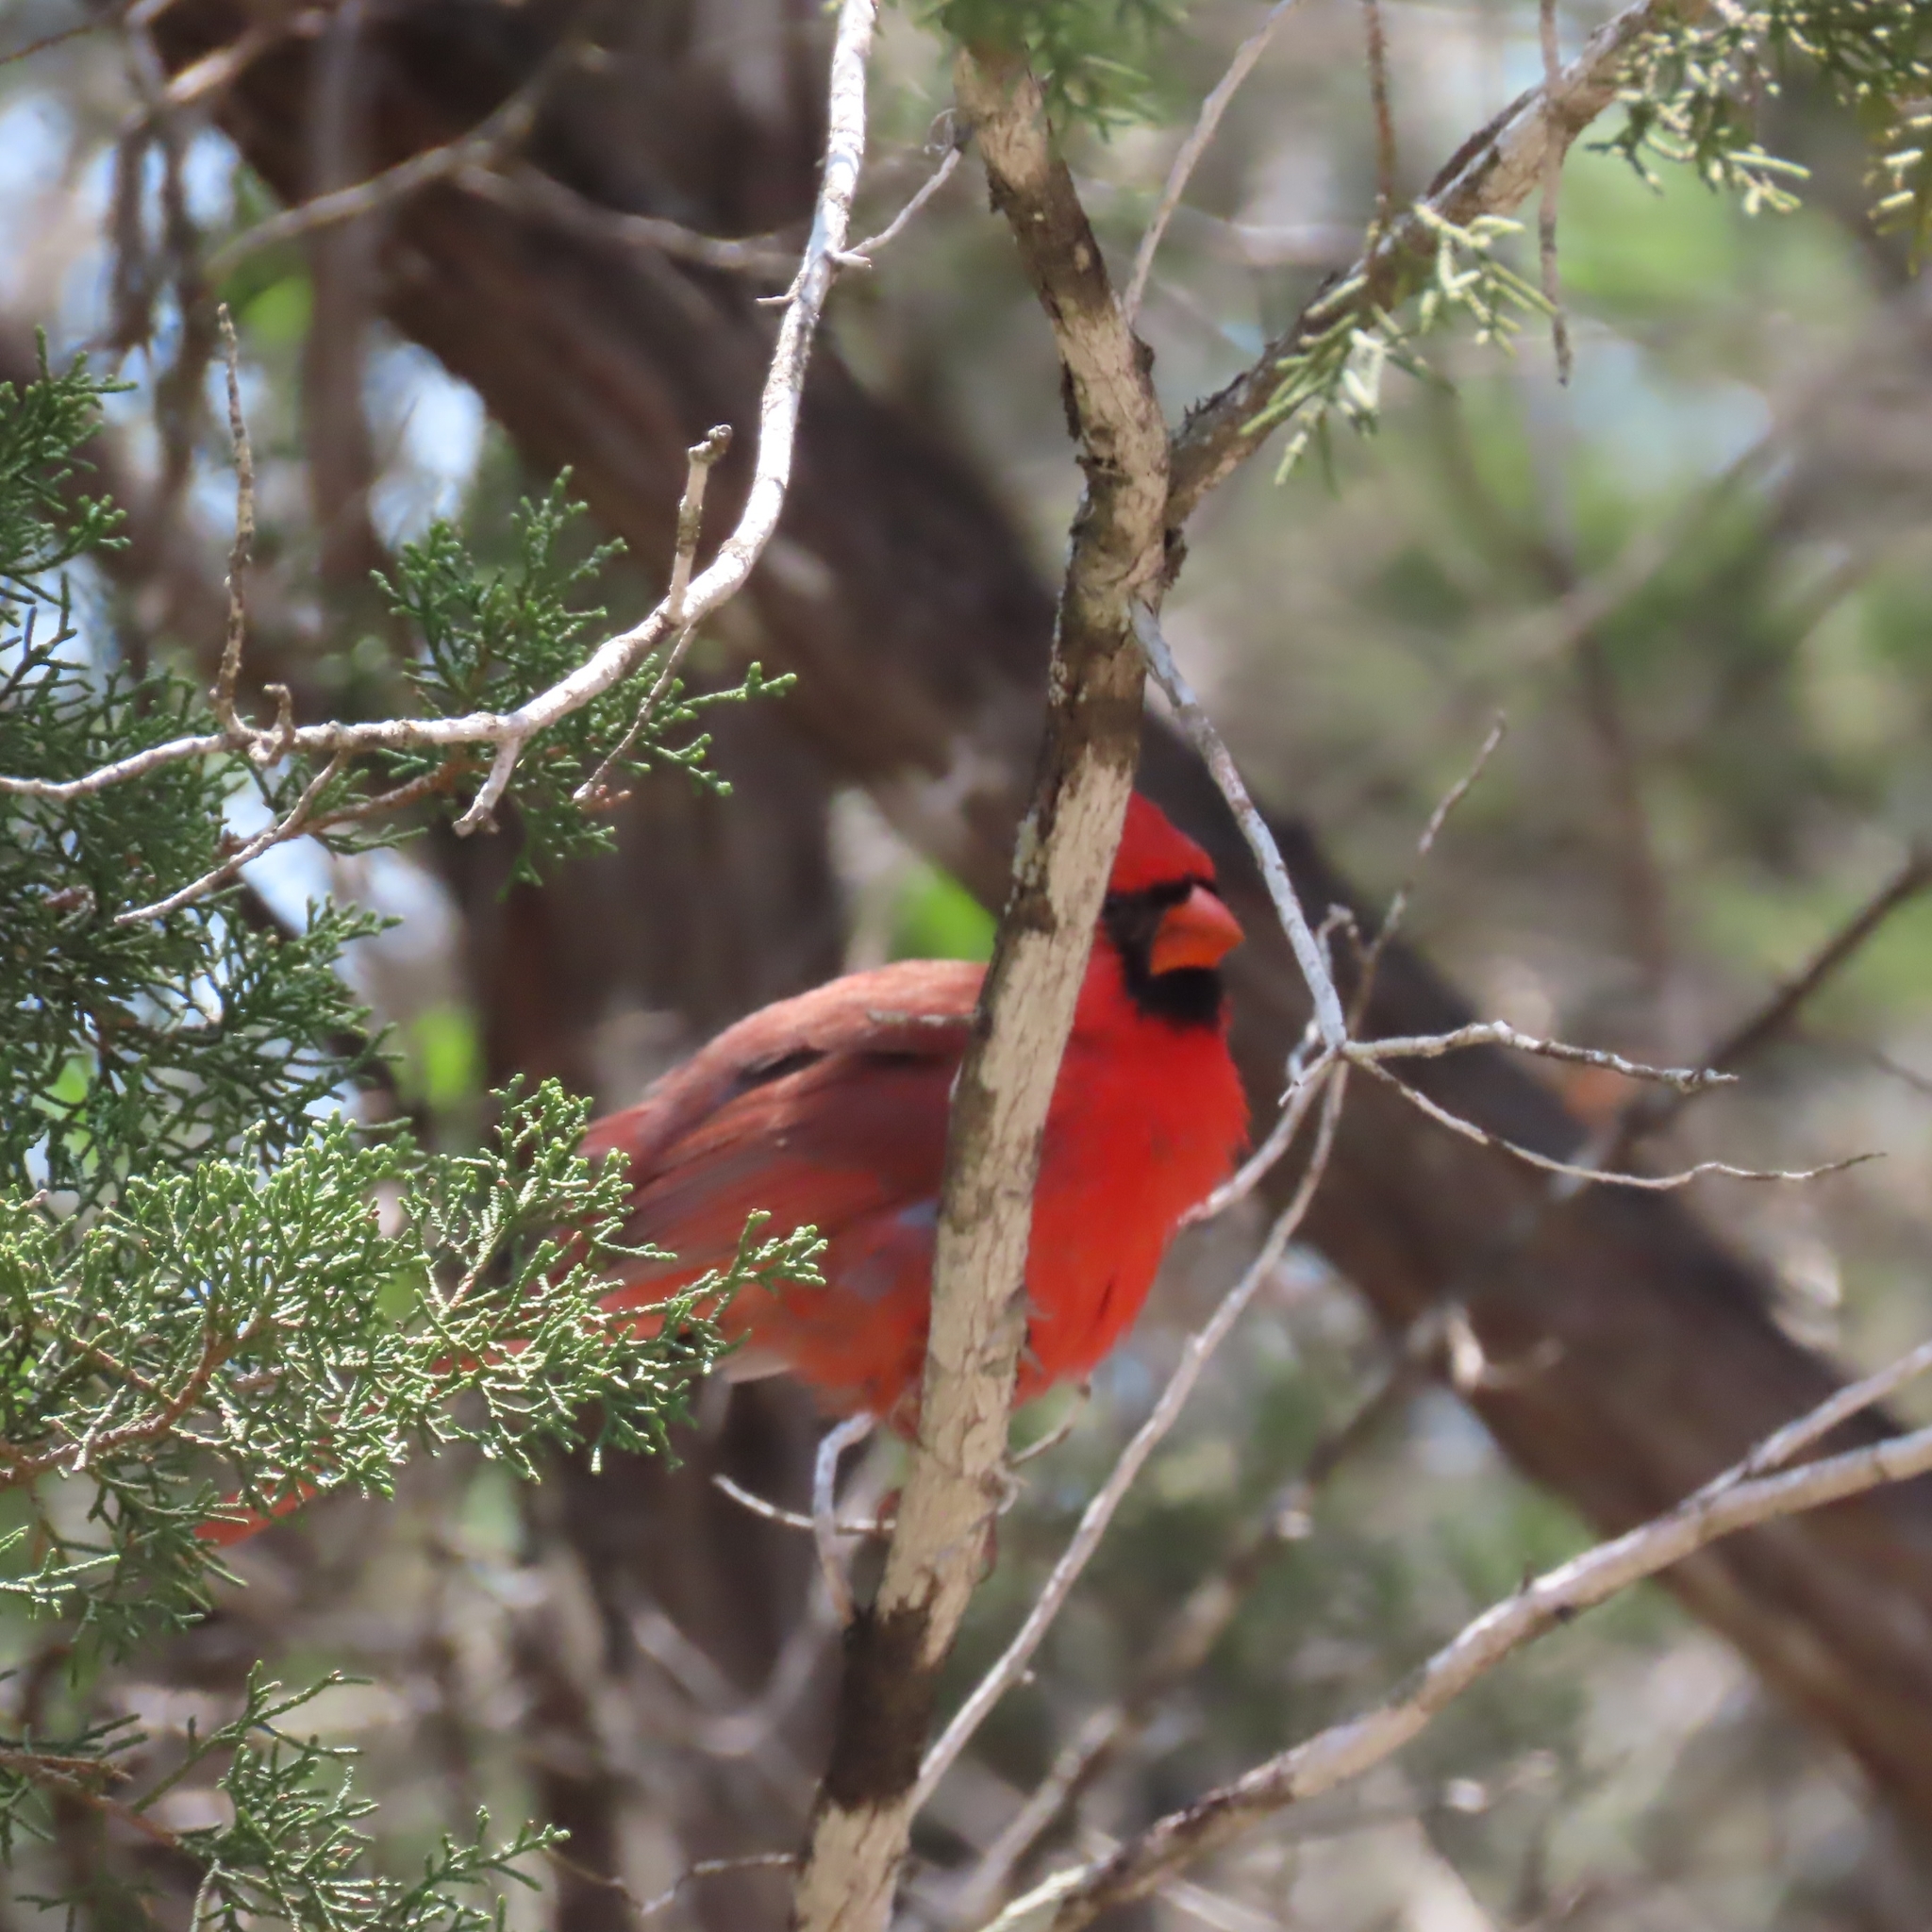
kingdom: Animalia
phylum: Chordata
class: Aves
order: Passeriformes
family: Cardinalidae
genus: Cardinalis
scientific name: Cardinalis cardinalis
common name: Northern cardinal
